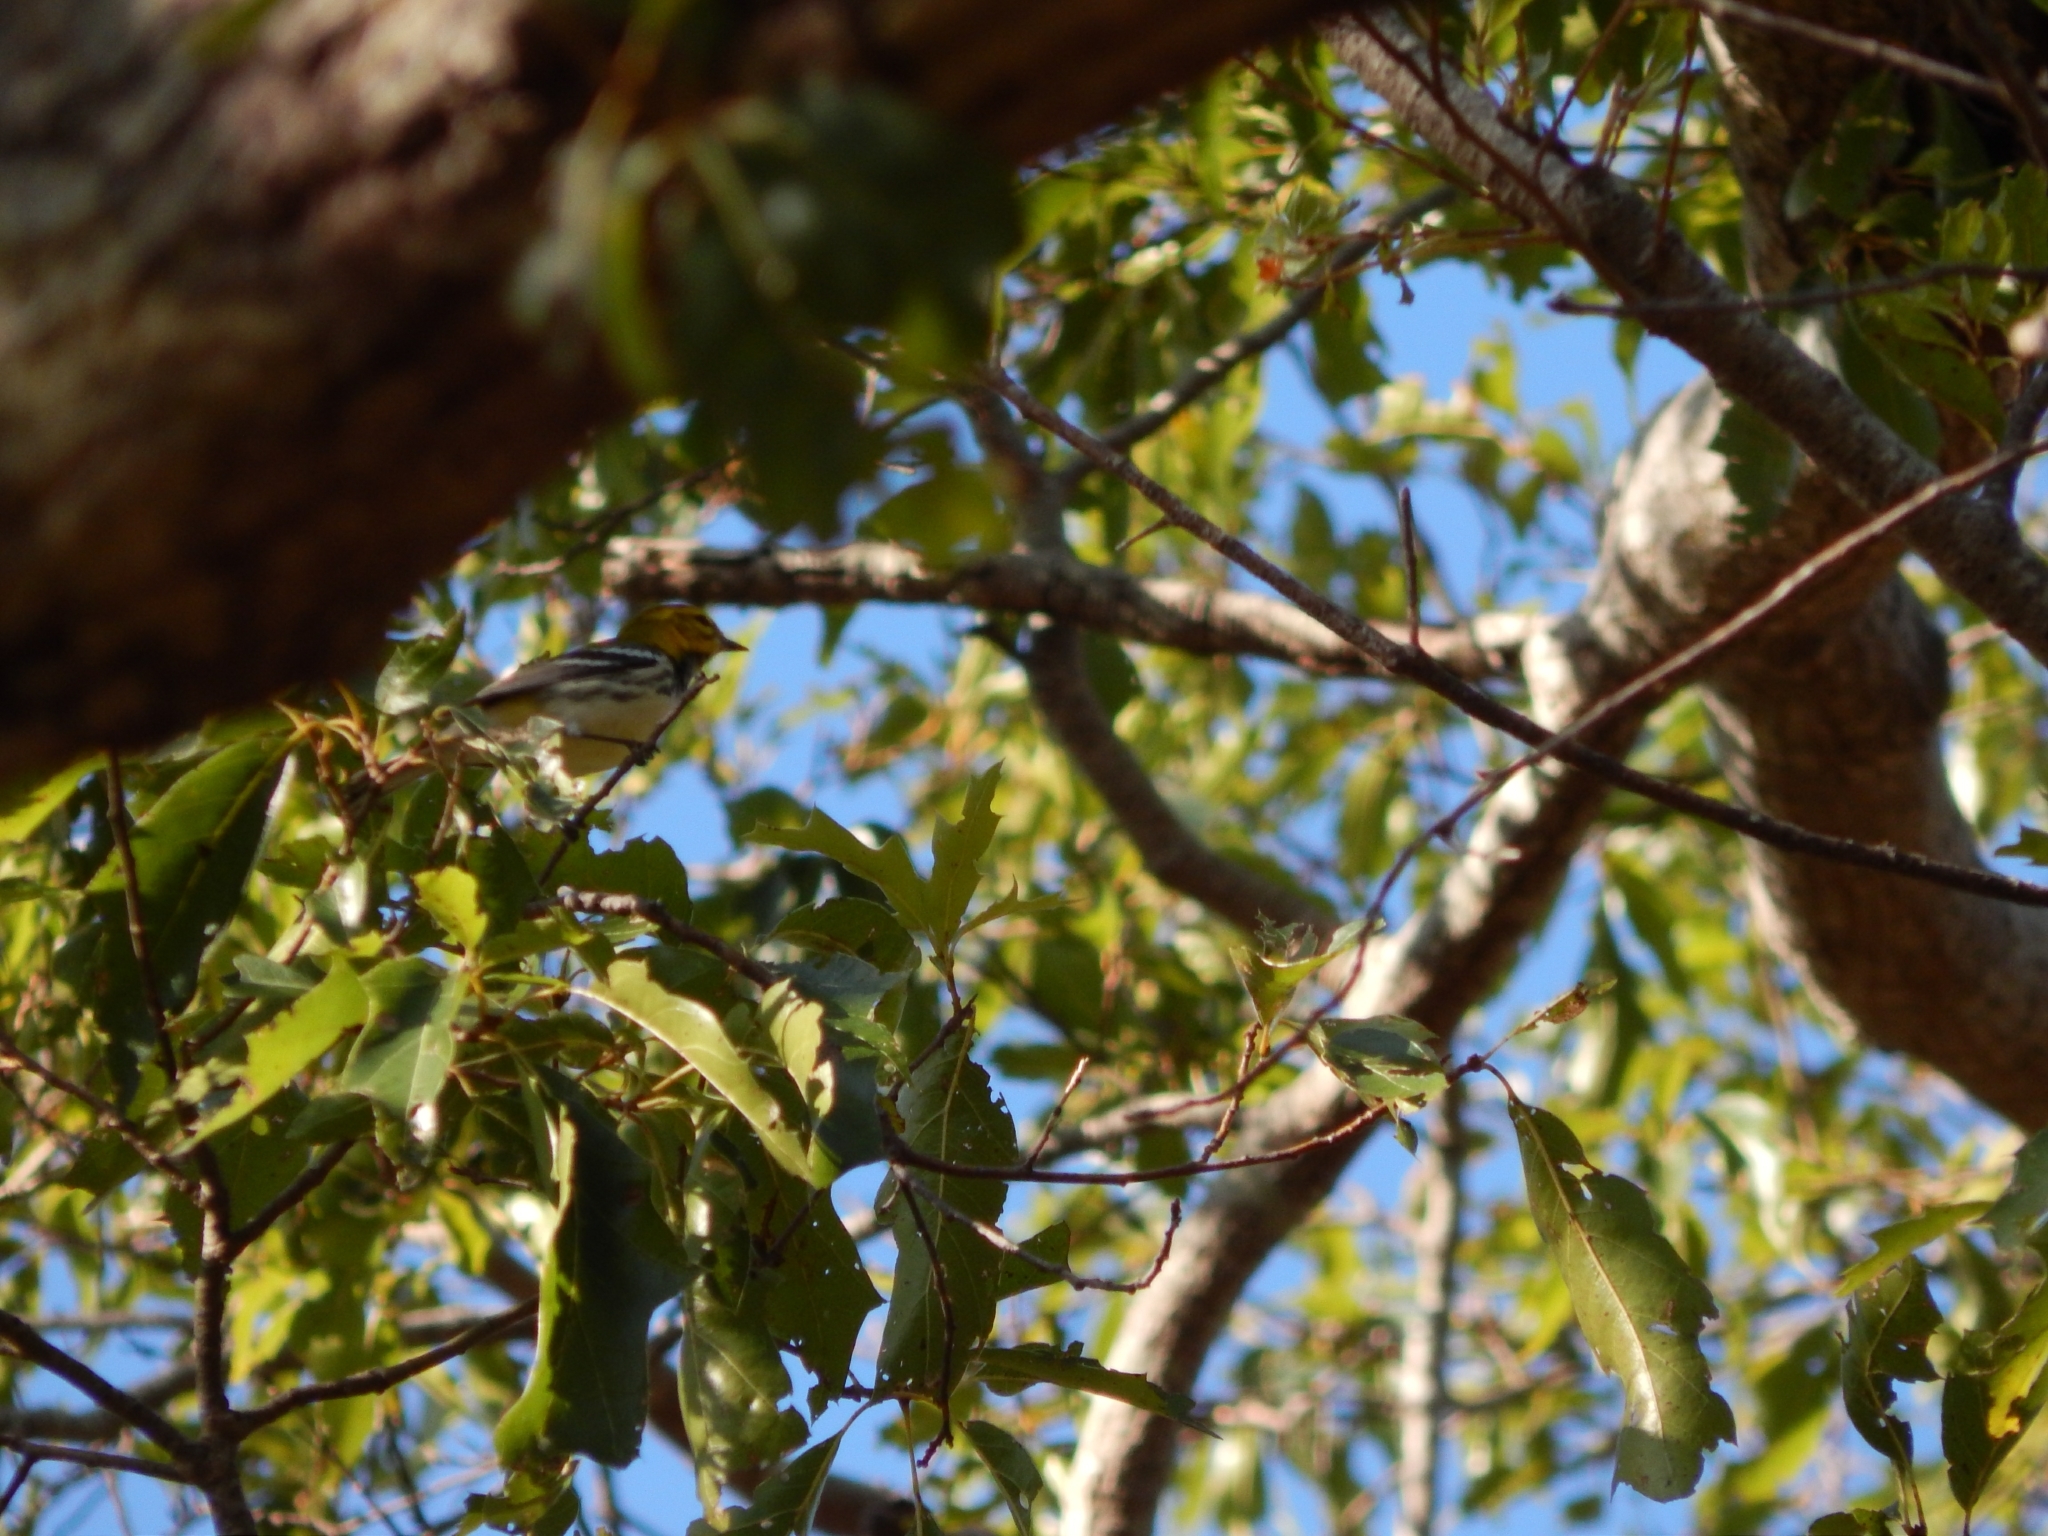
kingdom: Animalia
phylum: Chordata
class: Aves
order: Passeriformes
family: Parulidae
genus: Setophaga
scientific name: Setophaga virens
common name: Black-throated green warbler
